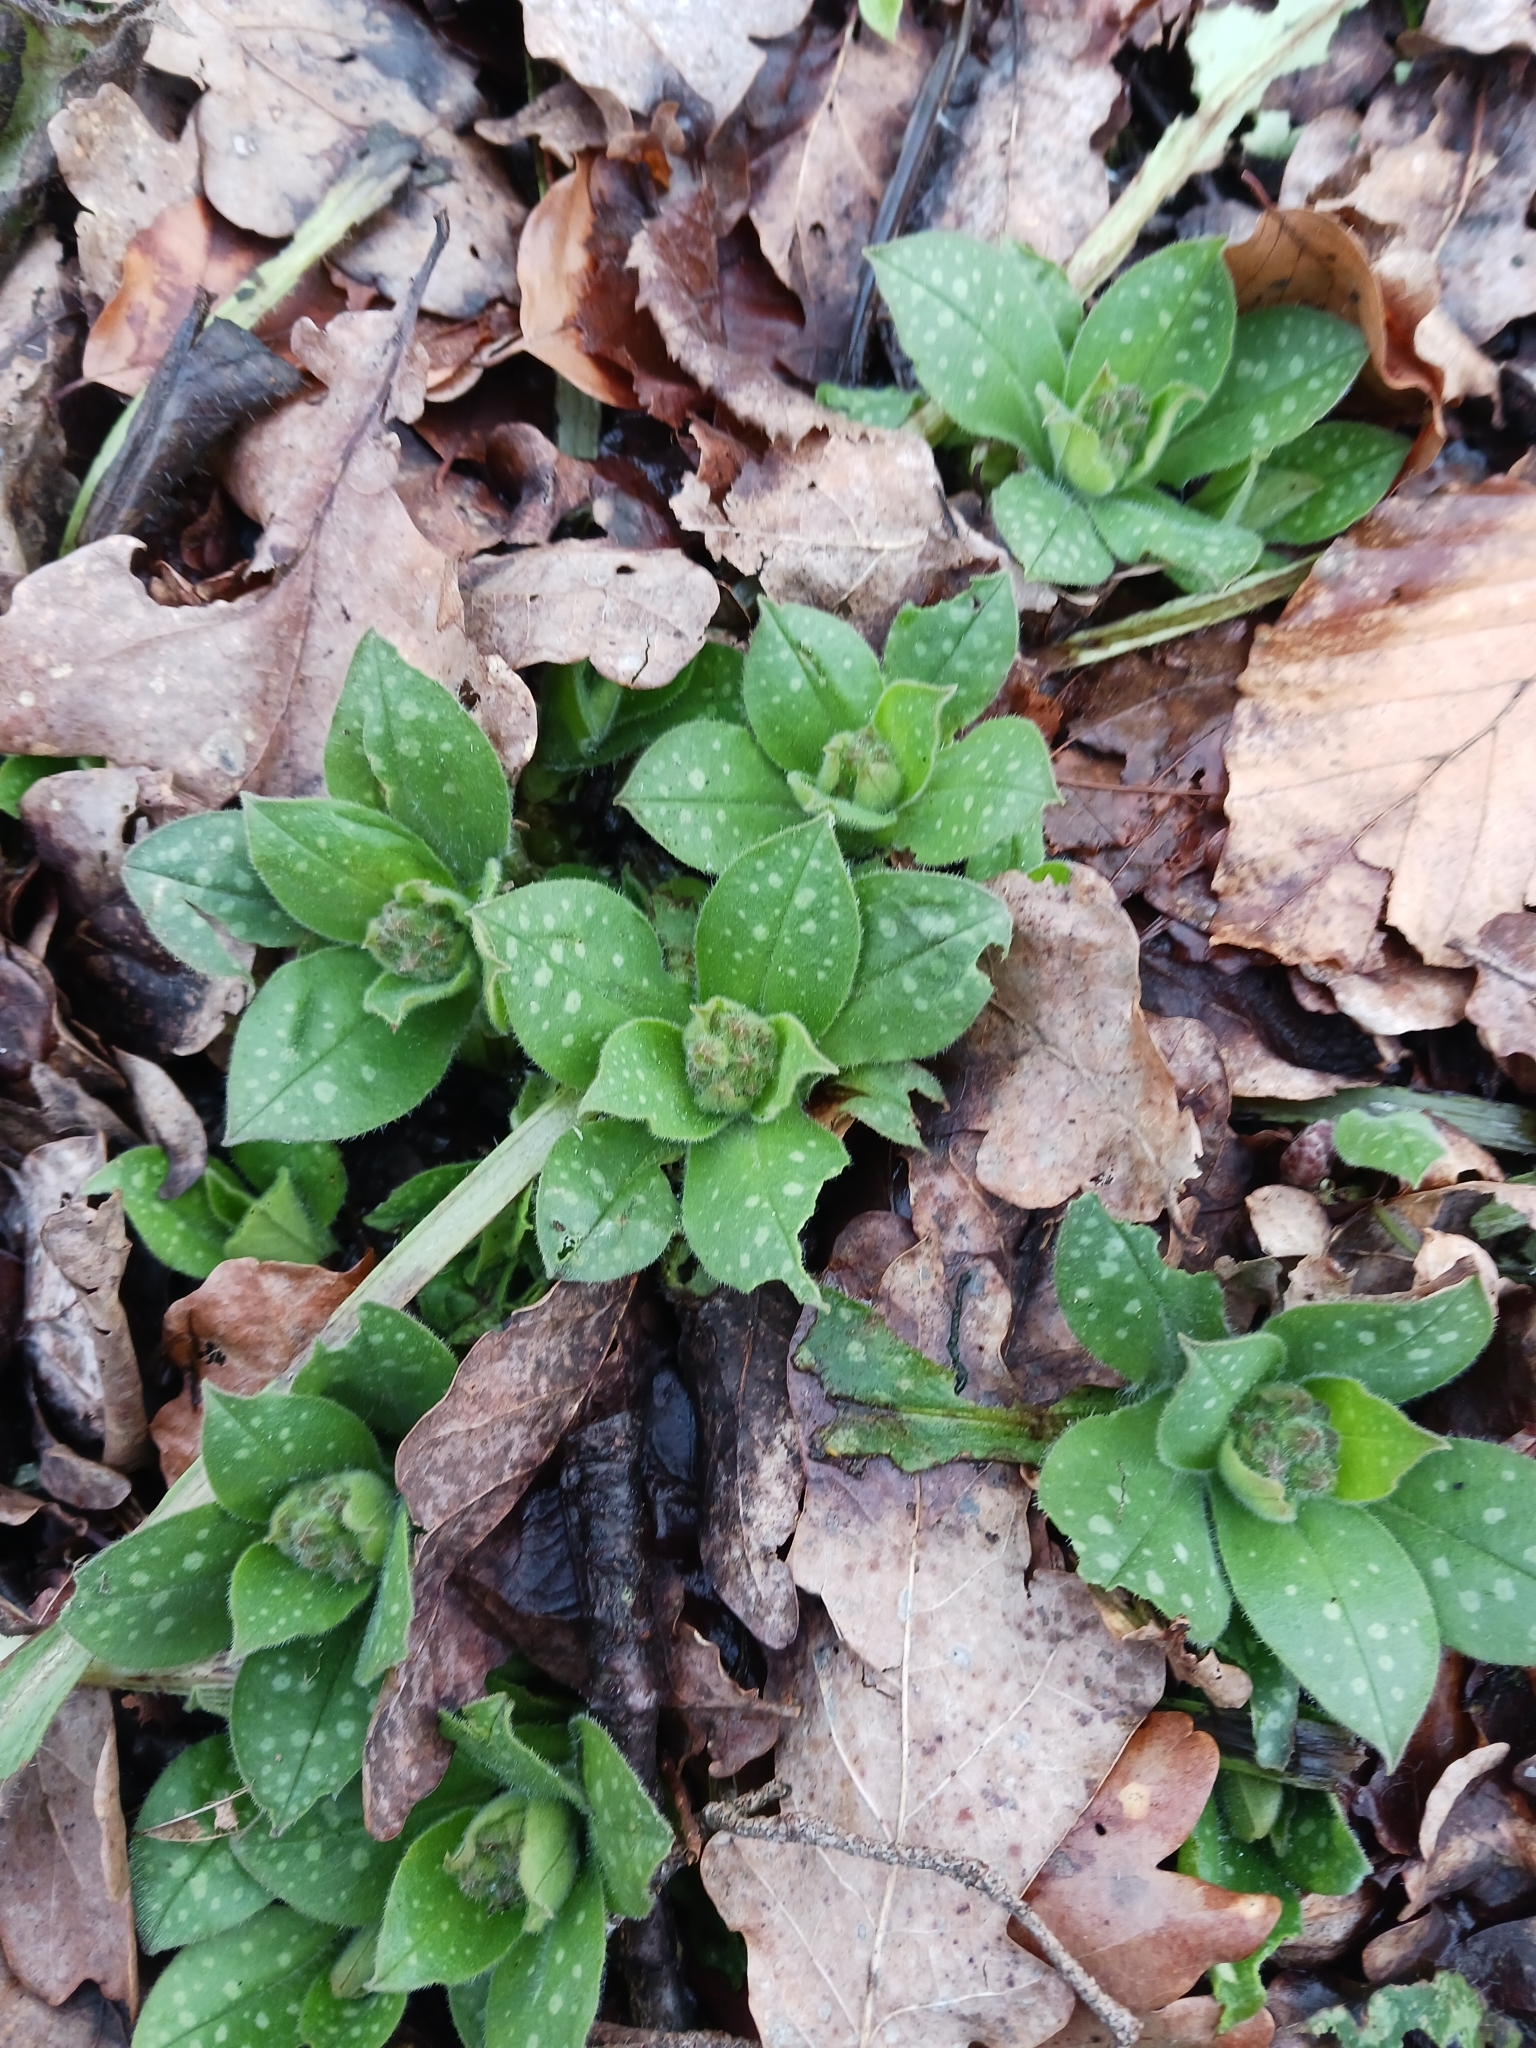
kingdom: Plantae
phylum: Tracheophyta
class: Magnoliopsida
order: Boraginales
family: Boraginaceae
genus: Pulmonaria
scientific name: Pulmonaria officinalis
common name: Lungwort
